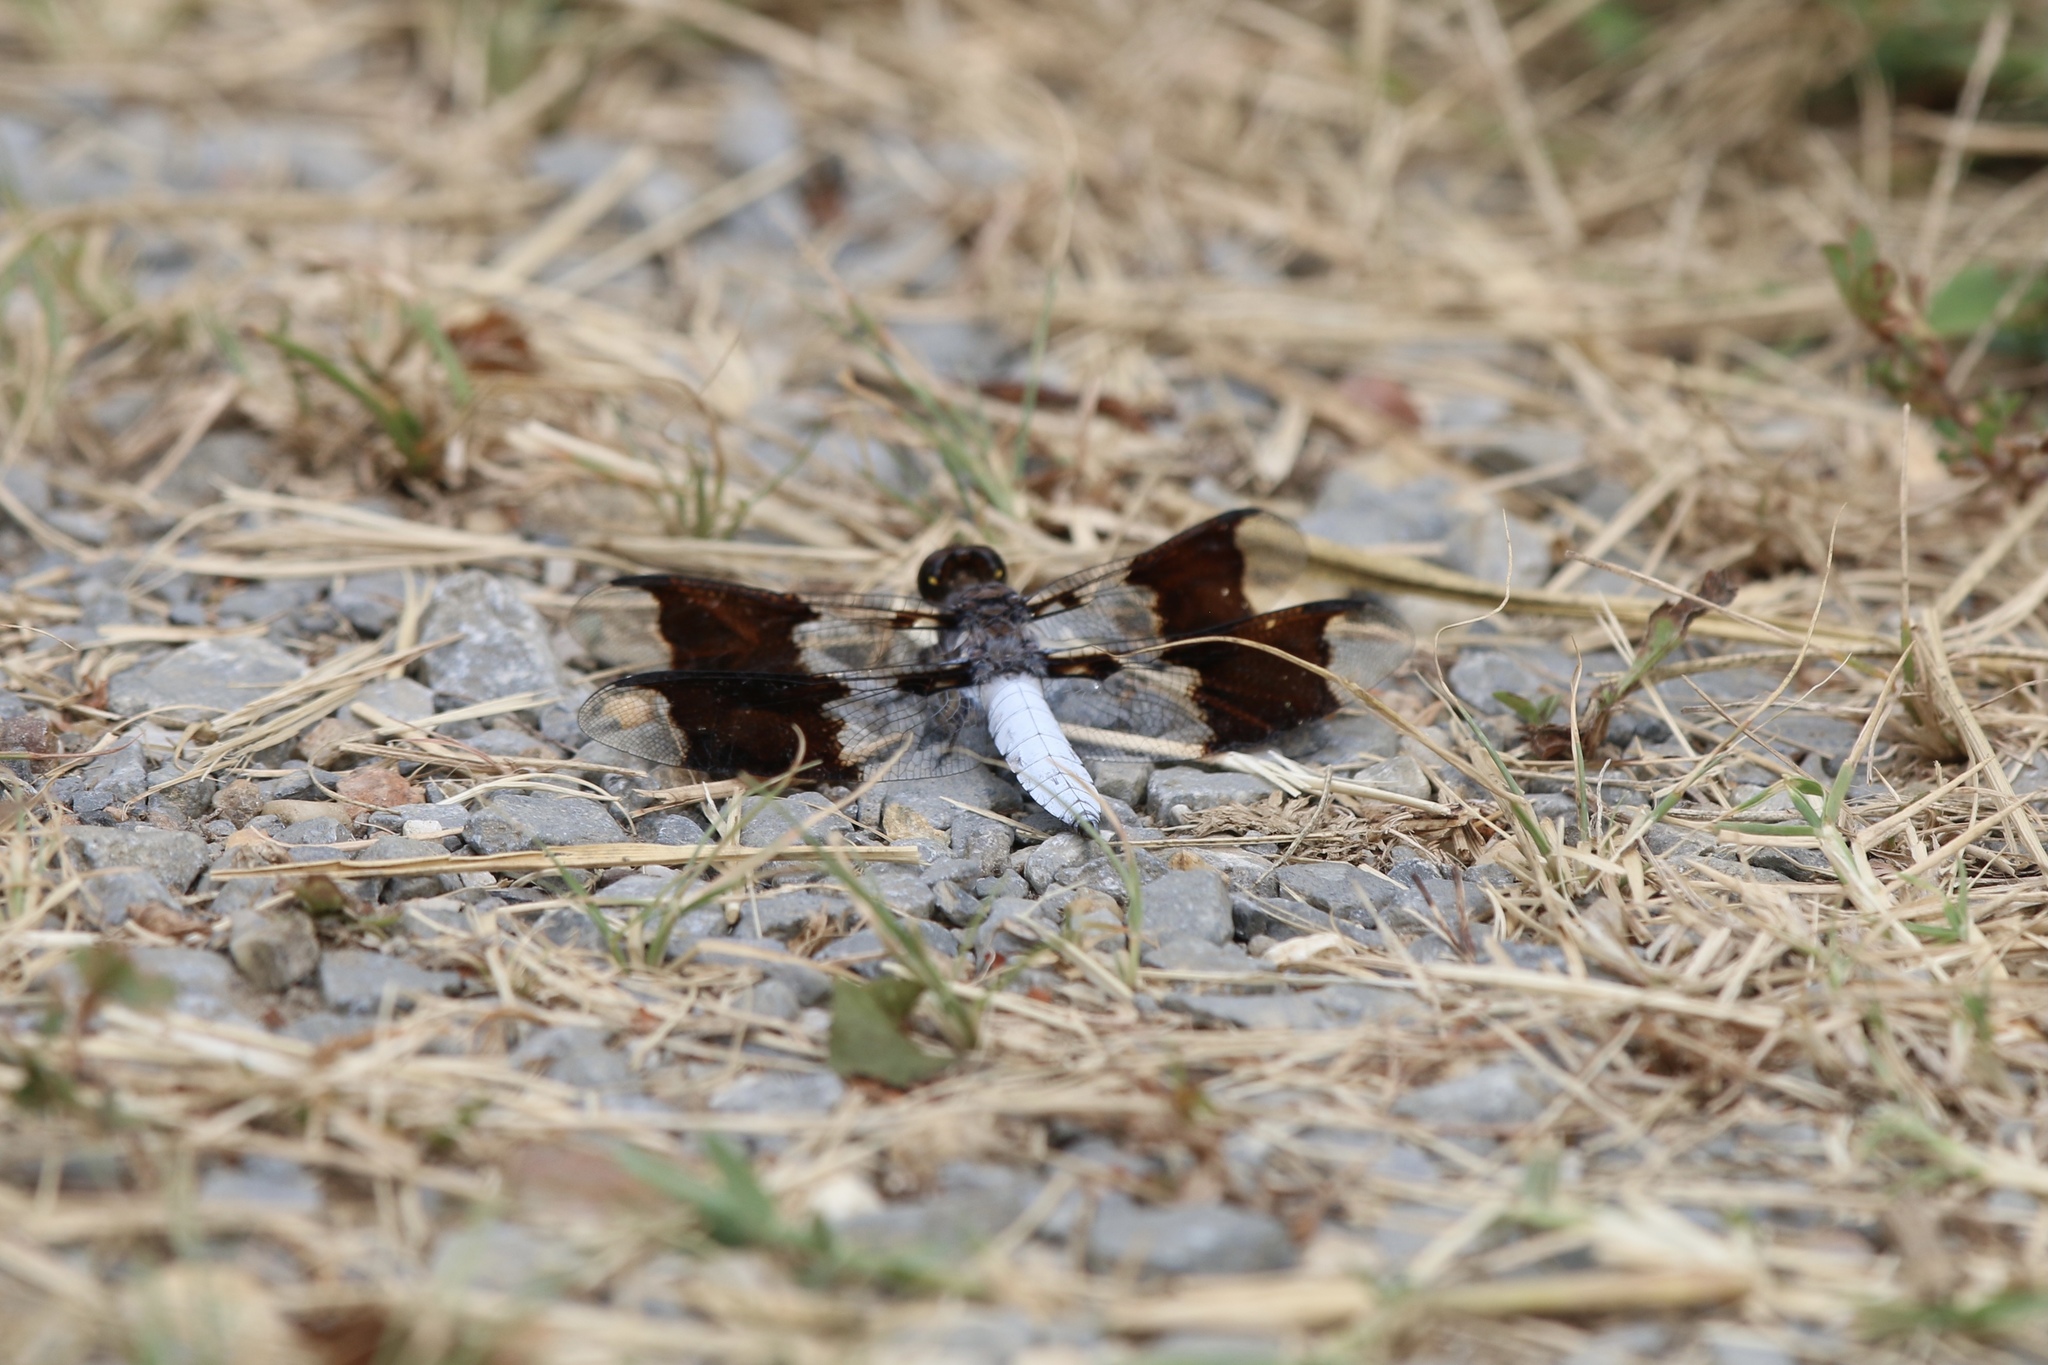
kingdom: Animalia
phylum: Arthropoda
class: Insecta
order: Odonata
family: Libellulidae
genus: Plathemis
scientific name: Plathemis lydia
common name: Common whitetail
